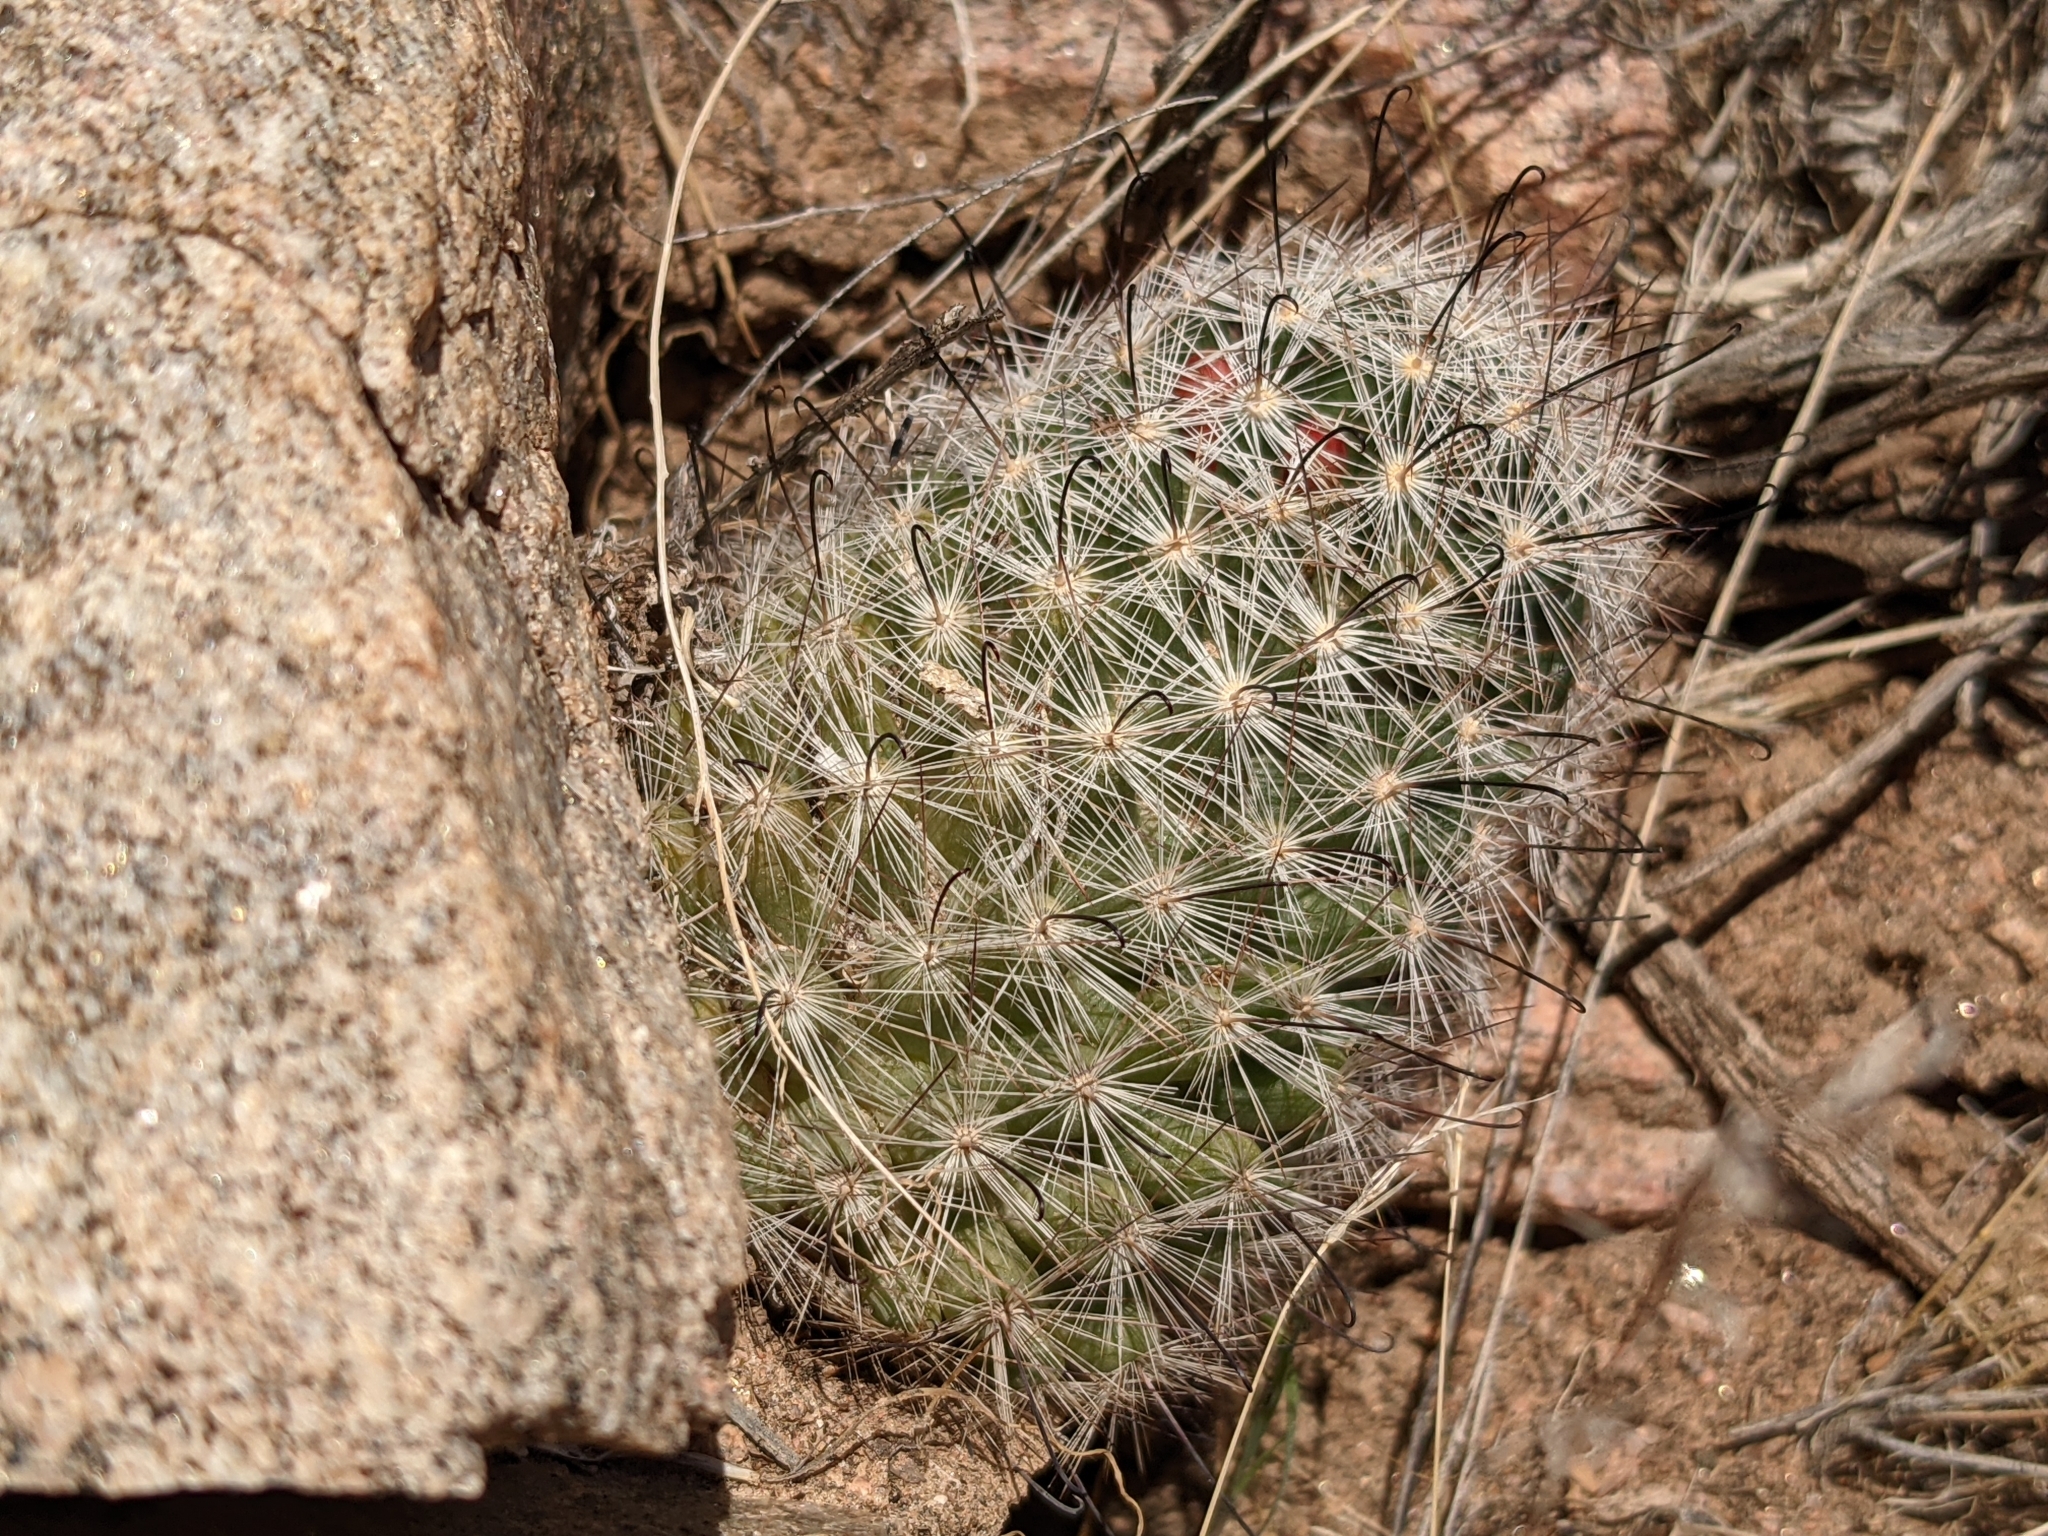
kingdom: Plantae
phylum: Tracheophyta
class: Magnoliopsida
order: Caryophyllales
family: Cactaceae
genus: Cochemiea
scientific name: Cochemiea grahamii
